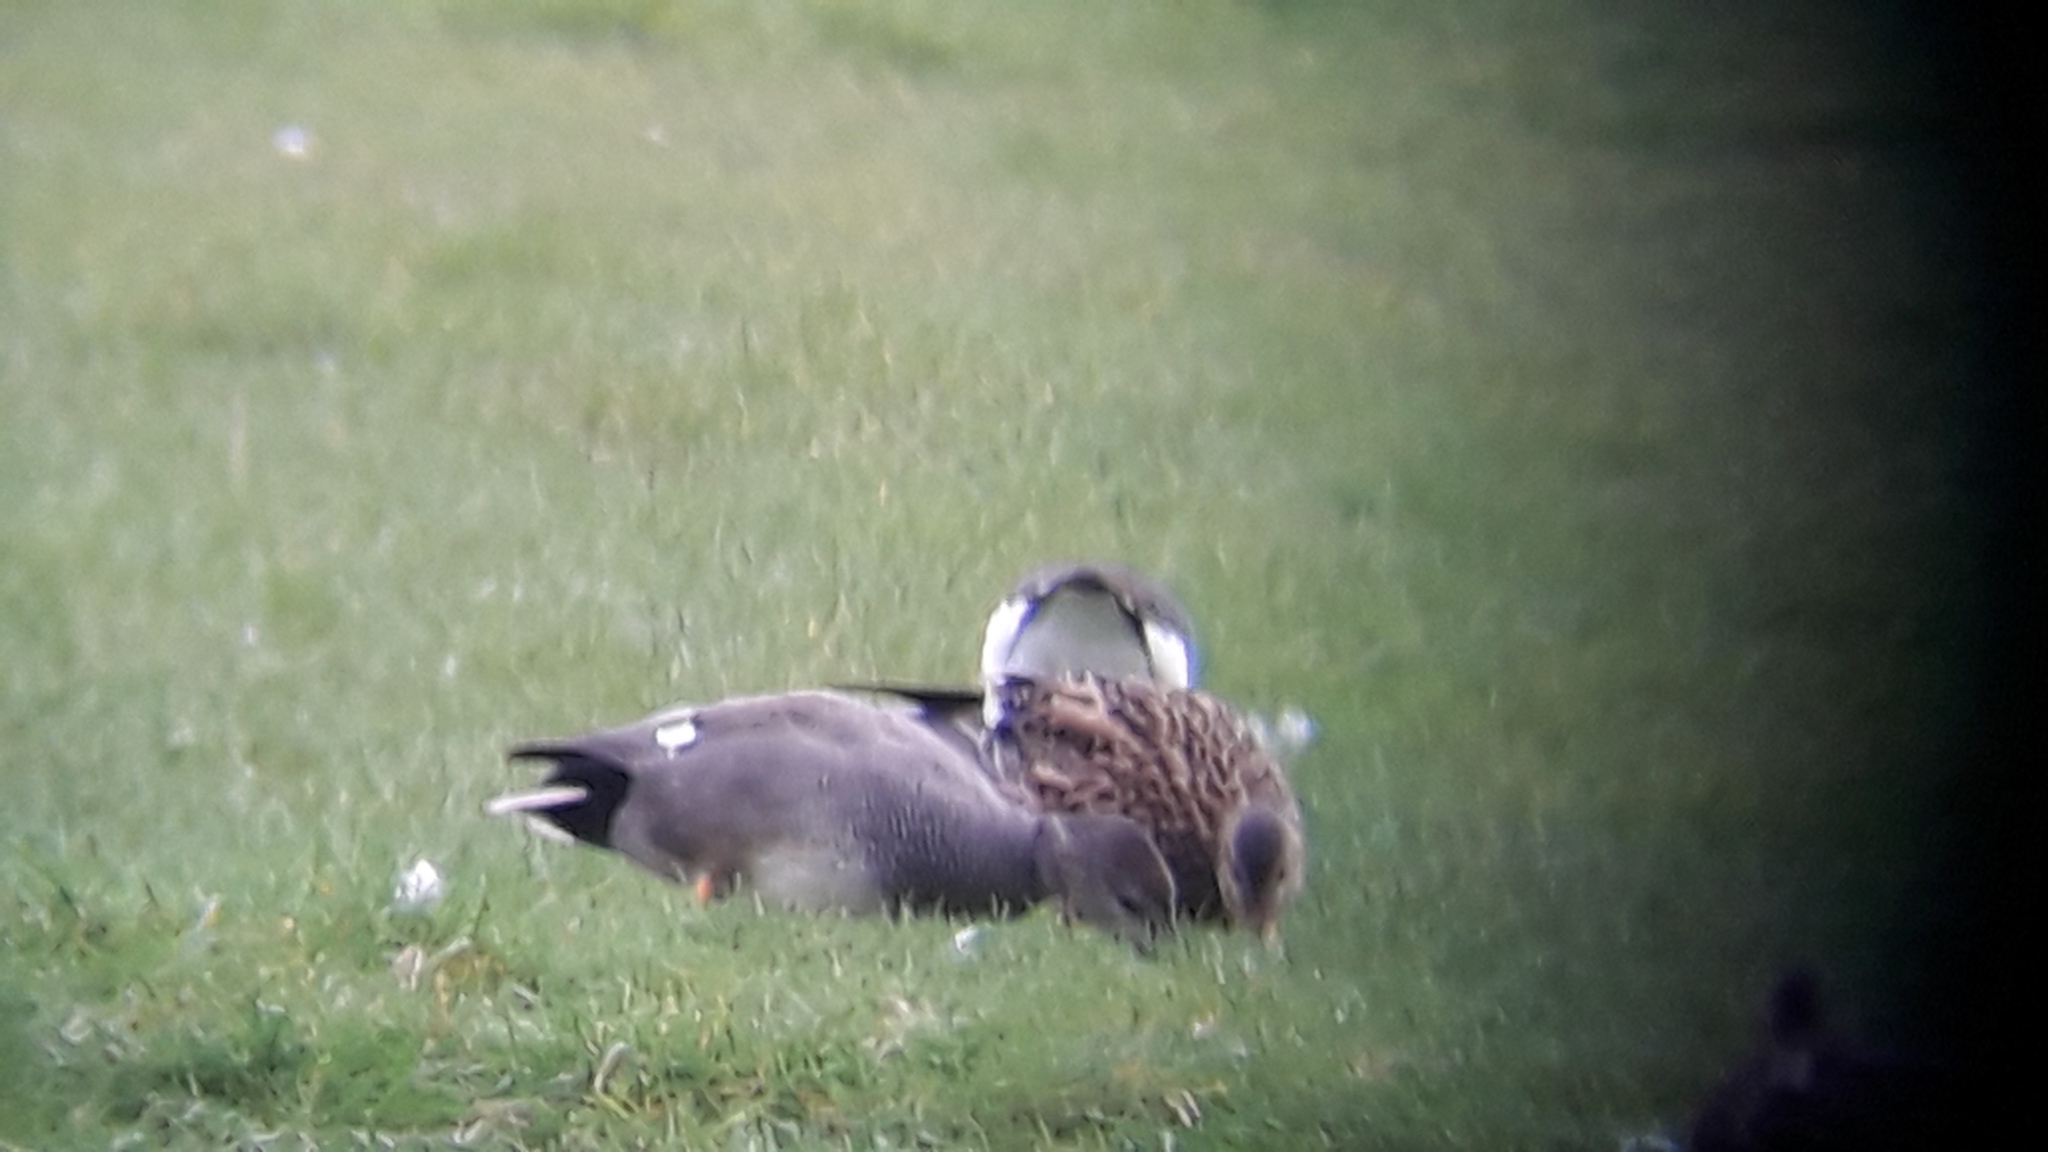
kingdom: Animalia
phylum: Chordata
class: Aves
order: Anseriformes
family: Anatidae
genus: Mareca
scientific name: Mareca strepera
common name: Gadwall
